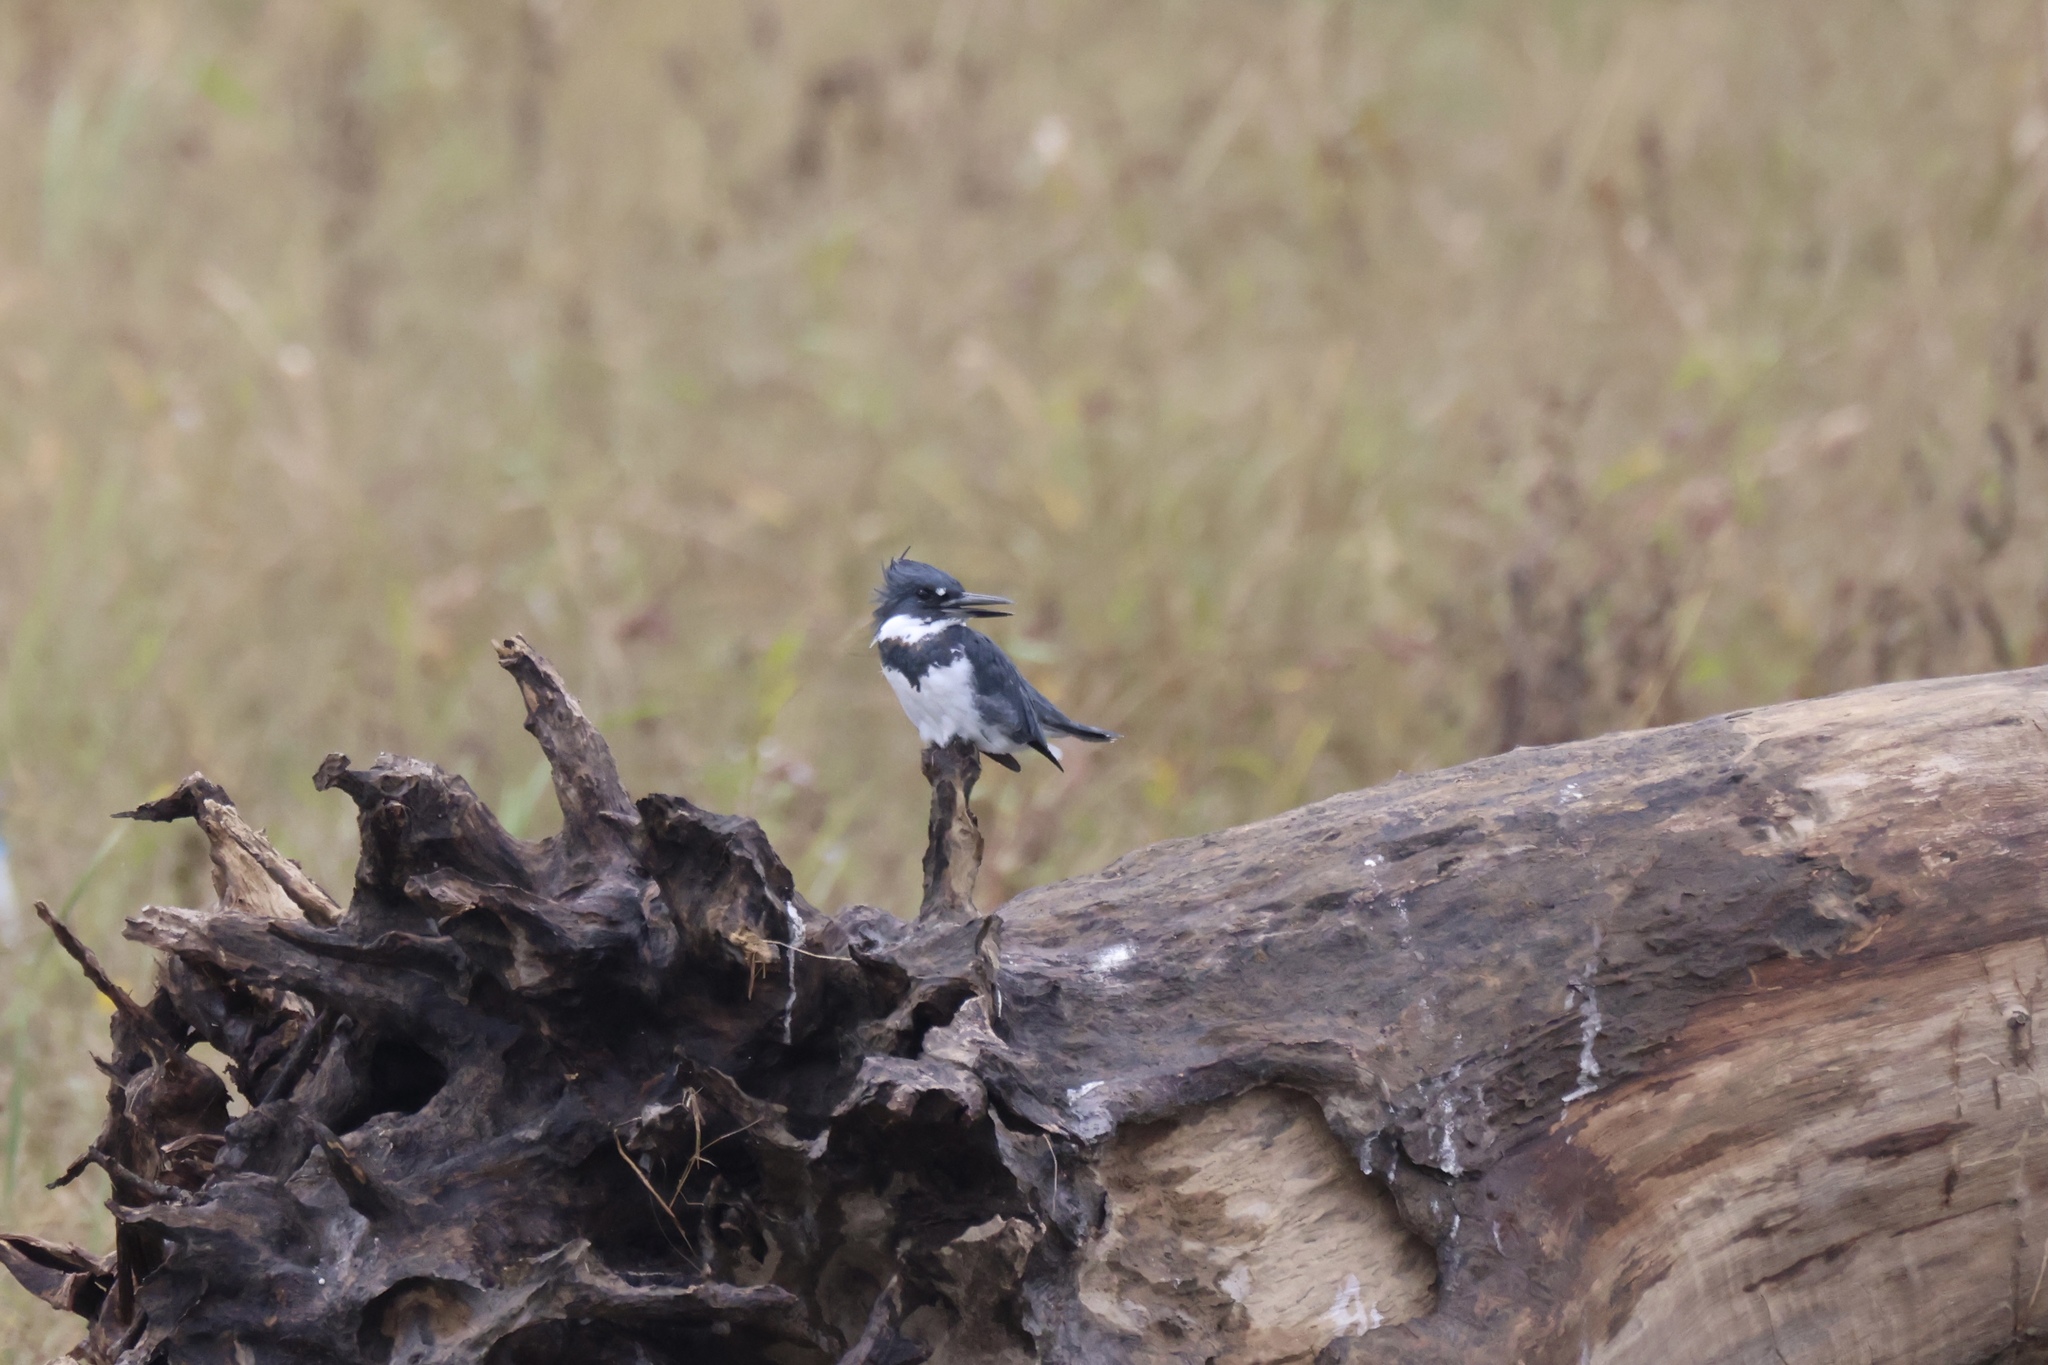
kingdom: Animalia
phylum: Chordata
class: Aves
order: Coraciiformes
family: Alcedinidae
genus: Megaceryle
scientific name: Megaceryle alcyon
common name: Belted kingfisher
